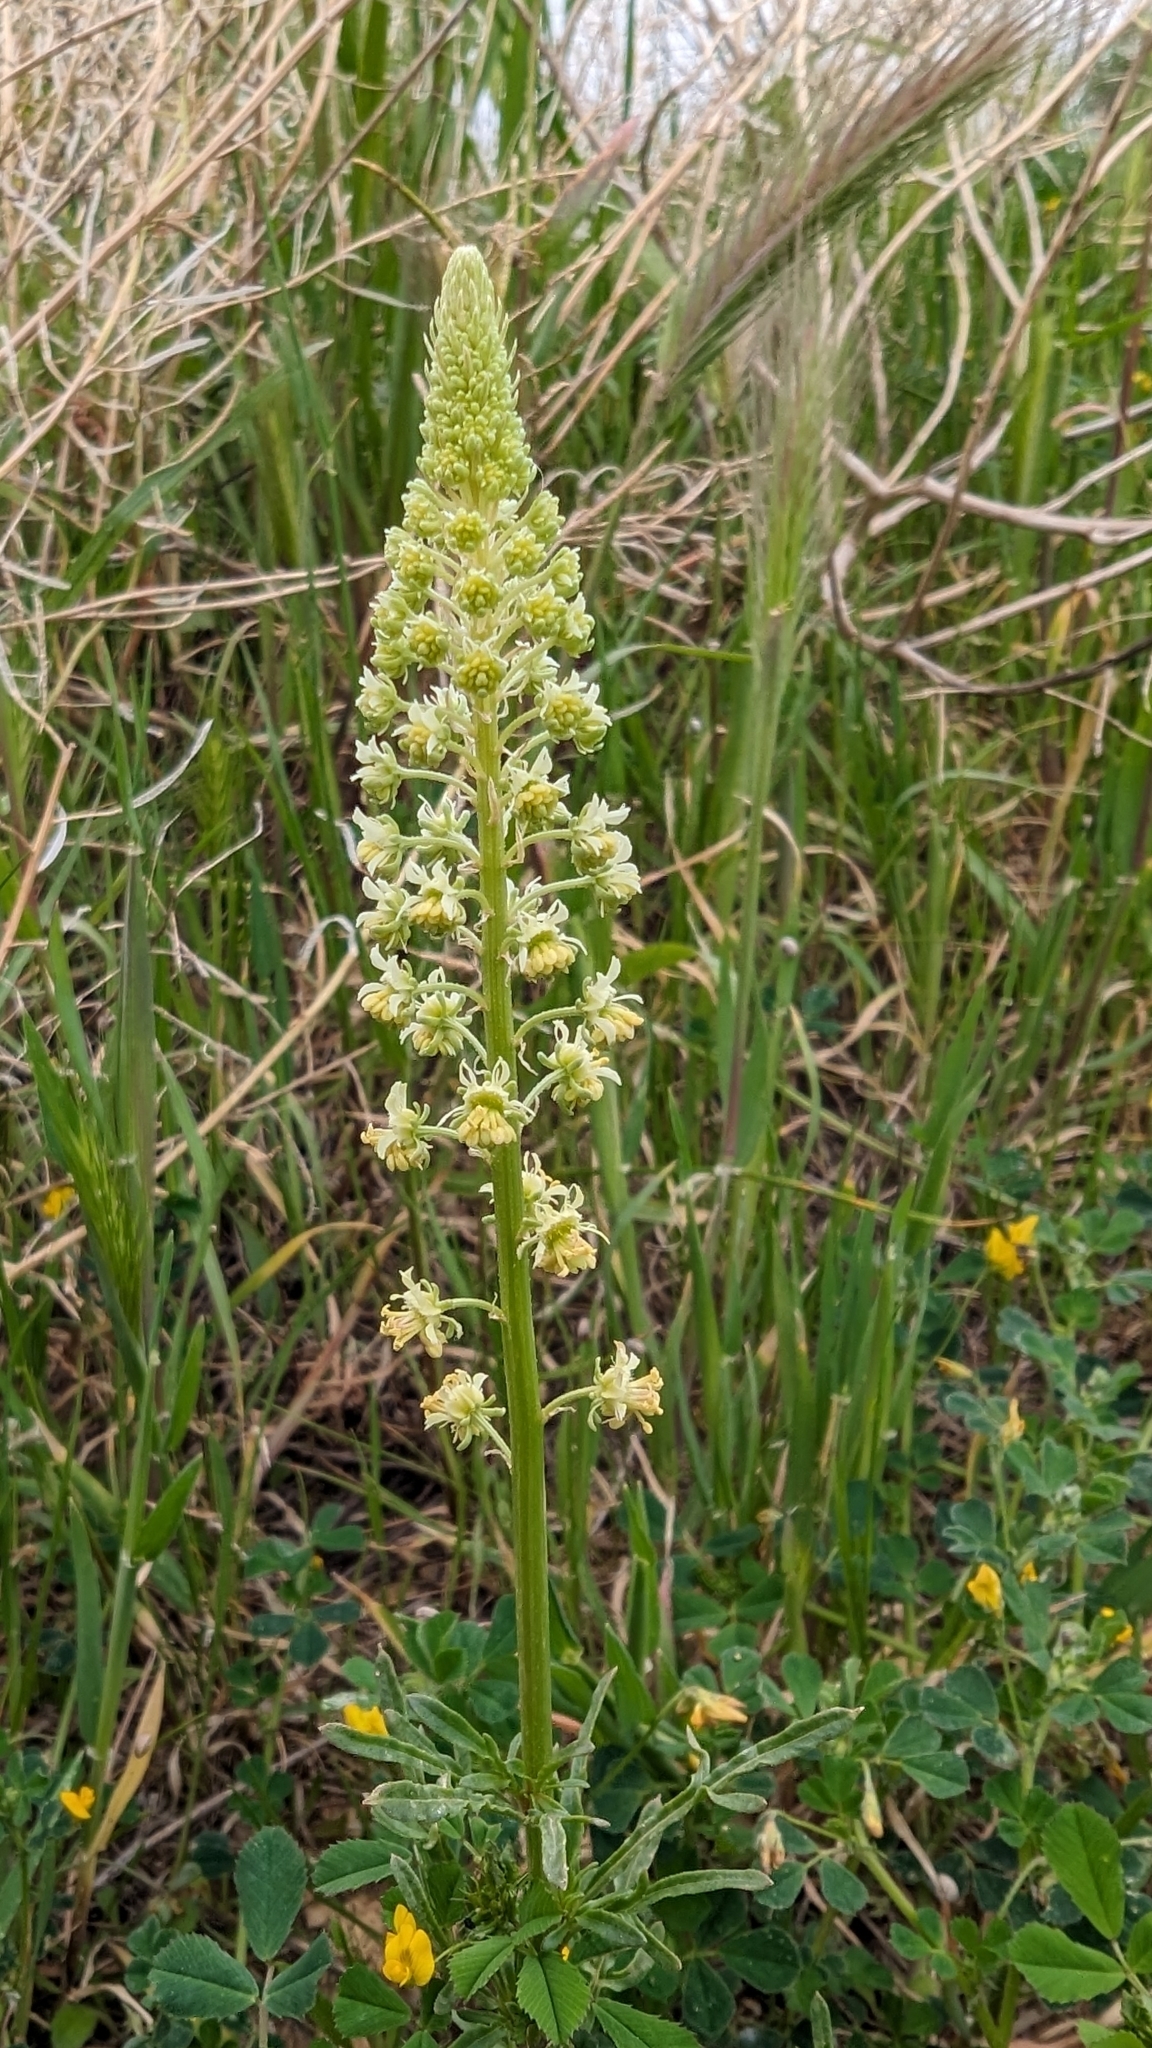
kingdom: Plantae
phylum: Tracheophyta
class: Magnoliopsida
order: Brassicales
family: Resedaceae
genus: Reseda
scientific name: Reseda lutea
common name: Wild mignonette
